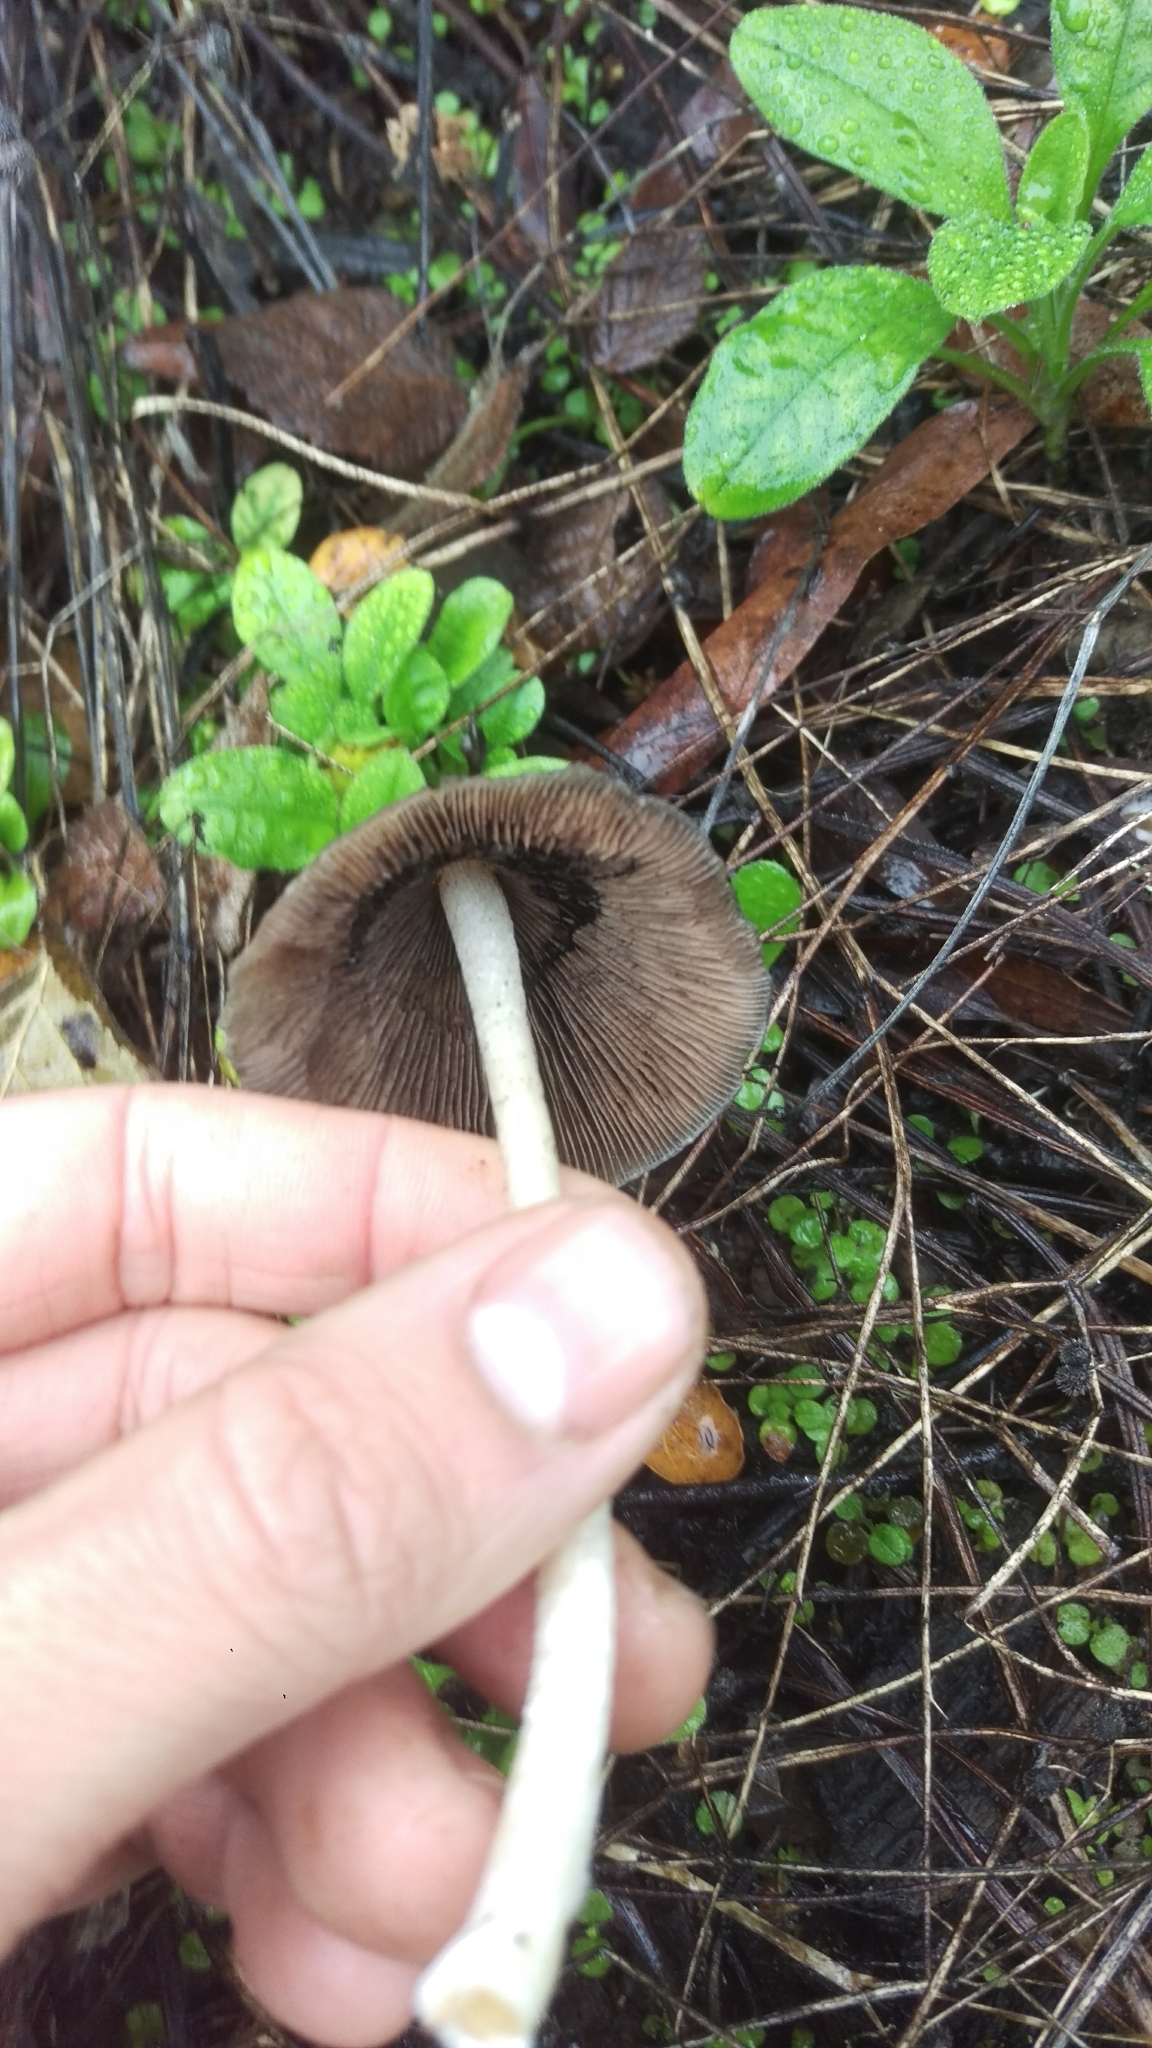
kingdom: Fungi
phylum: Basidiomycota
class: Agaricomycetes
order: Agaricales
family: Psathyrellaceae
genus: Psathyrella
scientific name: Psathyrella longipes
